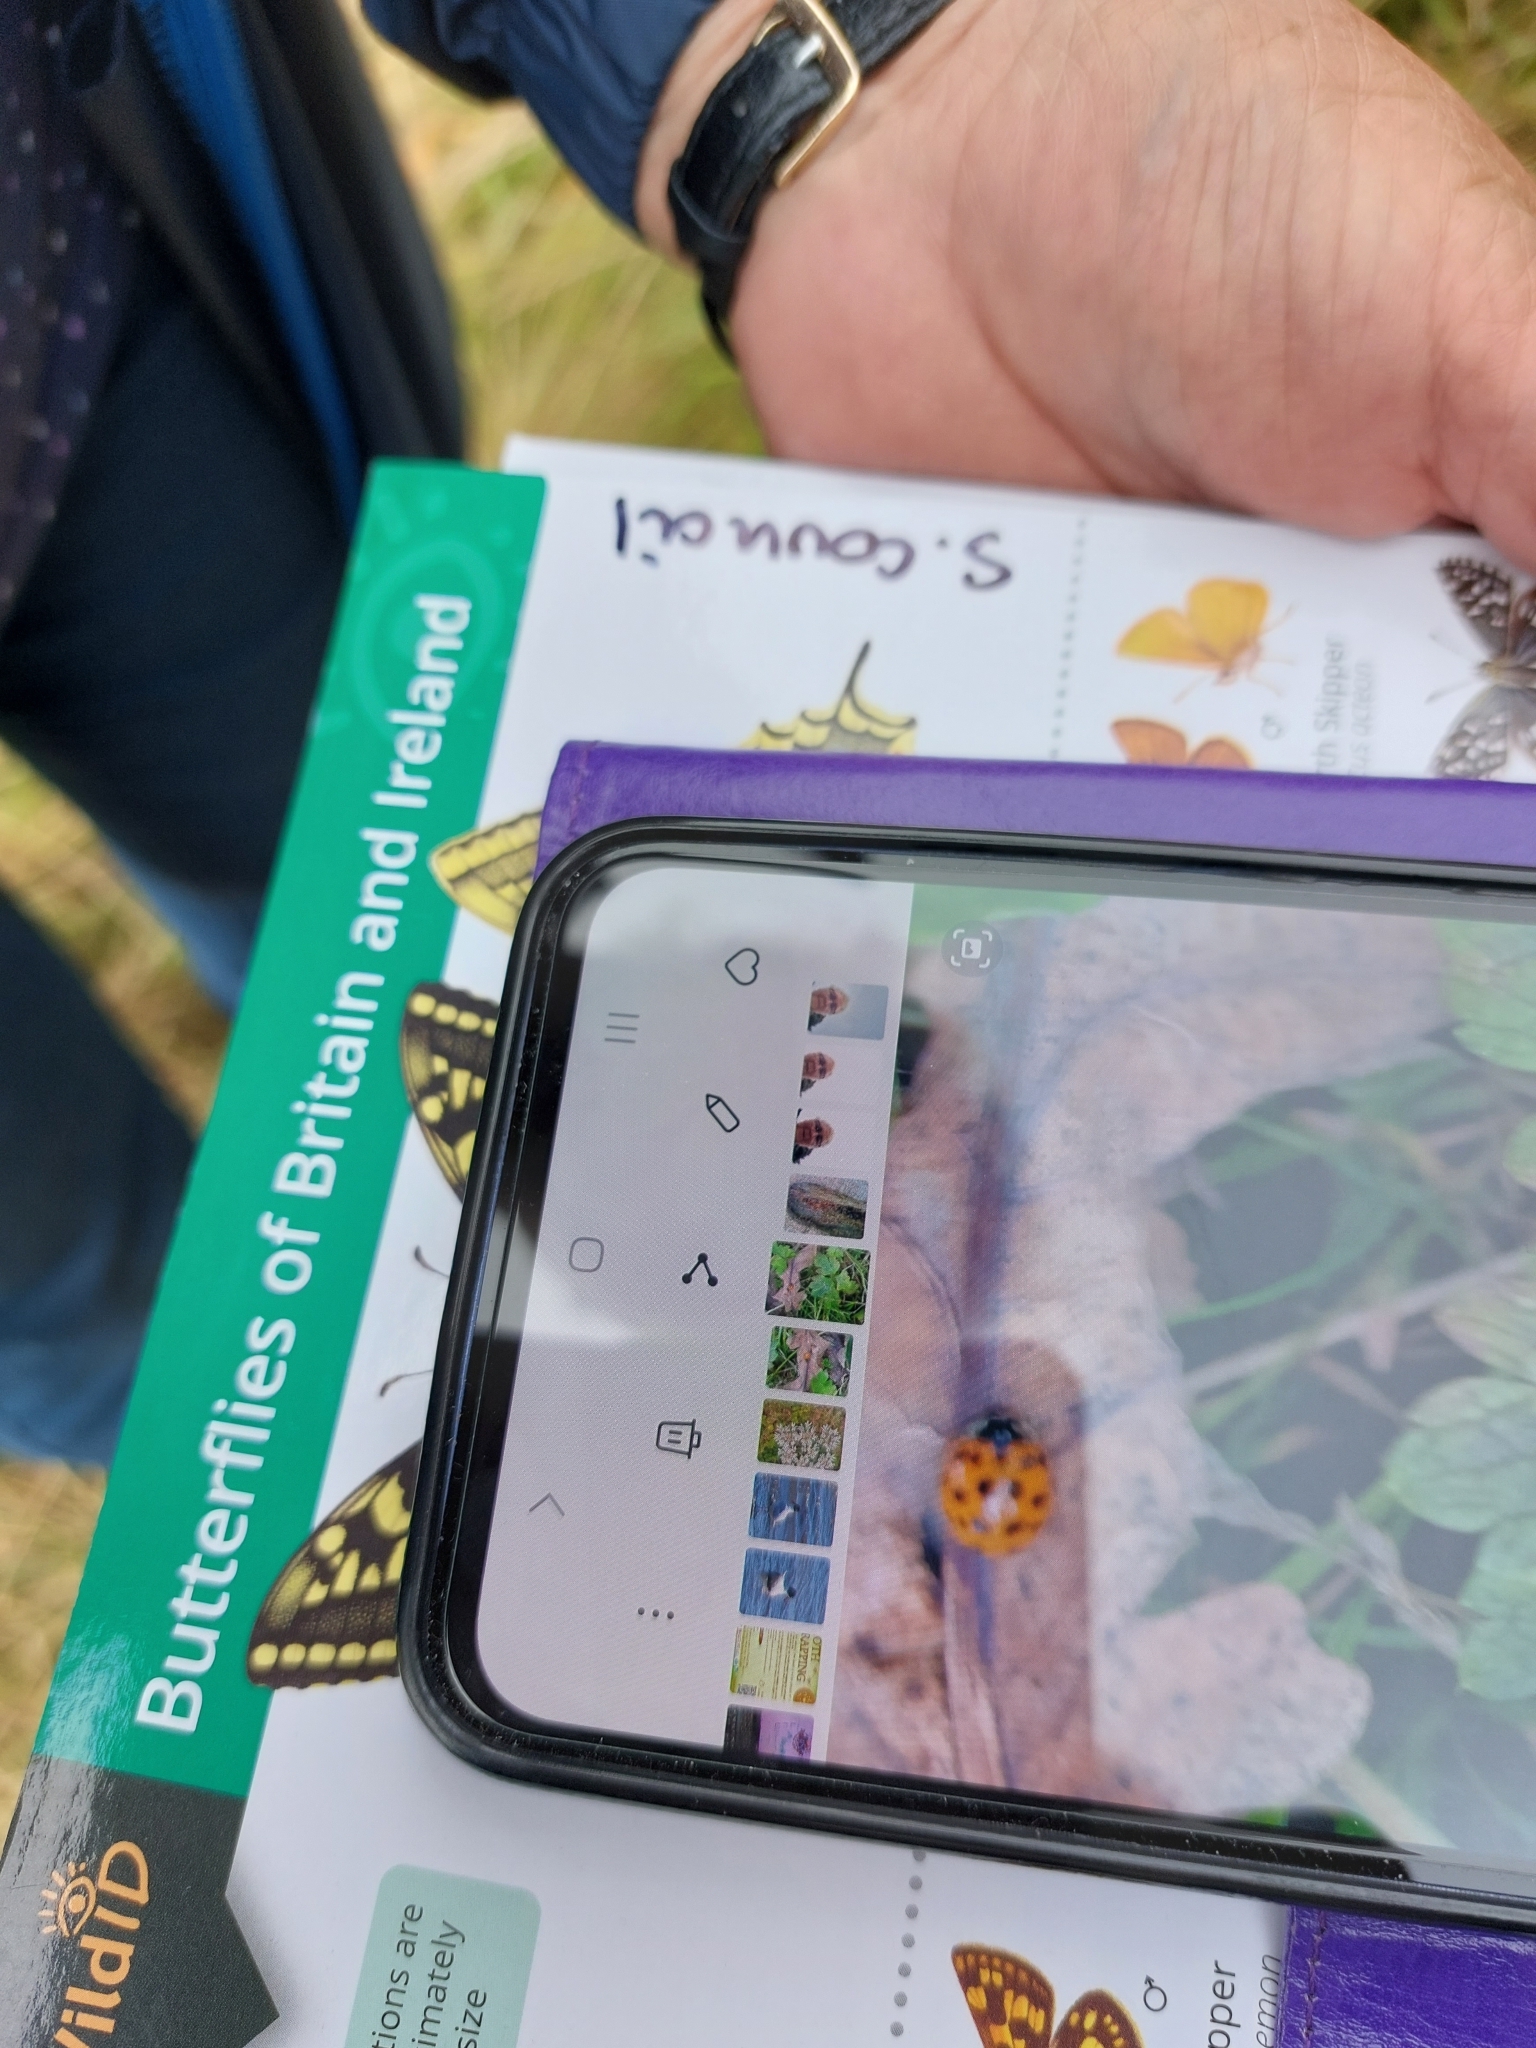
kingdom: Animalia
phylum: Arthropoda
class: Insecta
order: Coleoptera
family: Coccinellidae
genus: Harmonia
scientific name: Harmonia axyridis
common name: Harlequin ladybird
